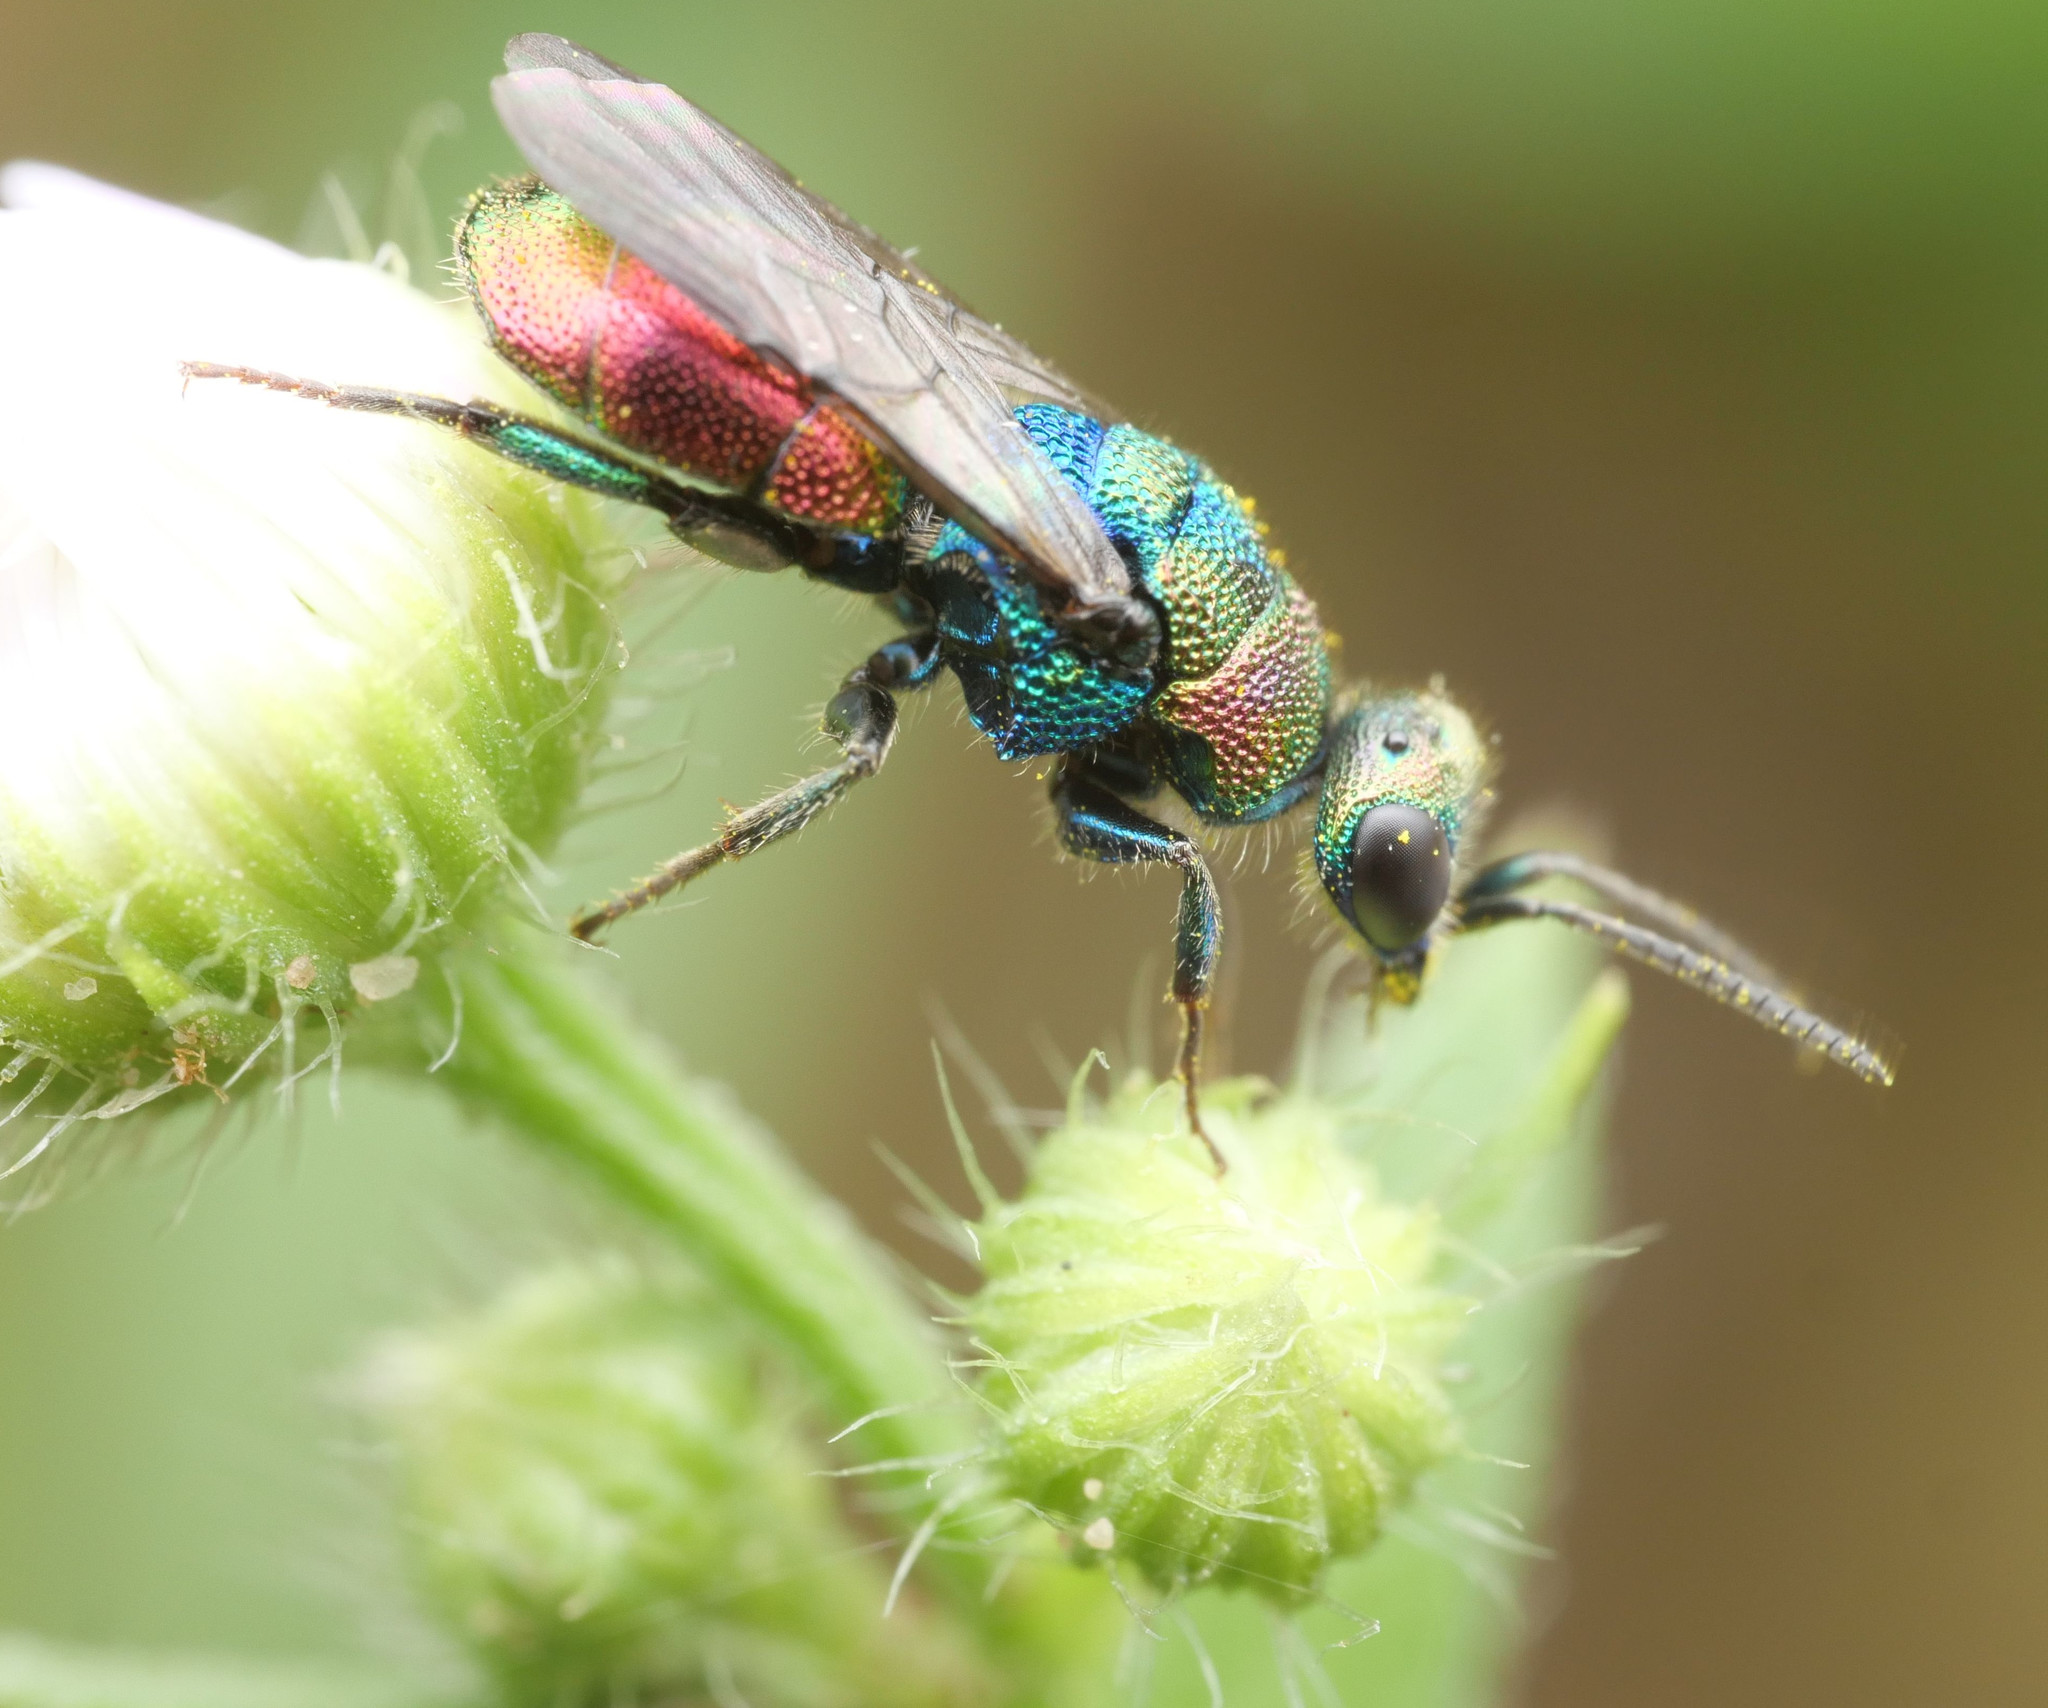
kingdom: Animalia
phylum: Arthropoda
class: Insecta
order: Hymenoptera
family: Chrysididae
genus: Hedychrum
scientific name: Hedychrum rutilans
